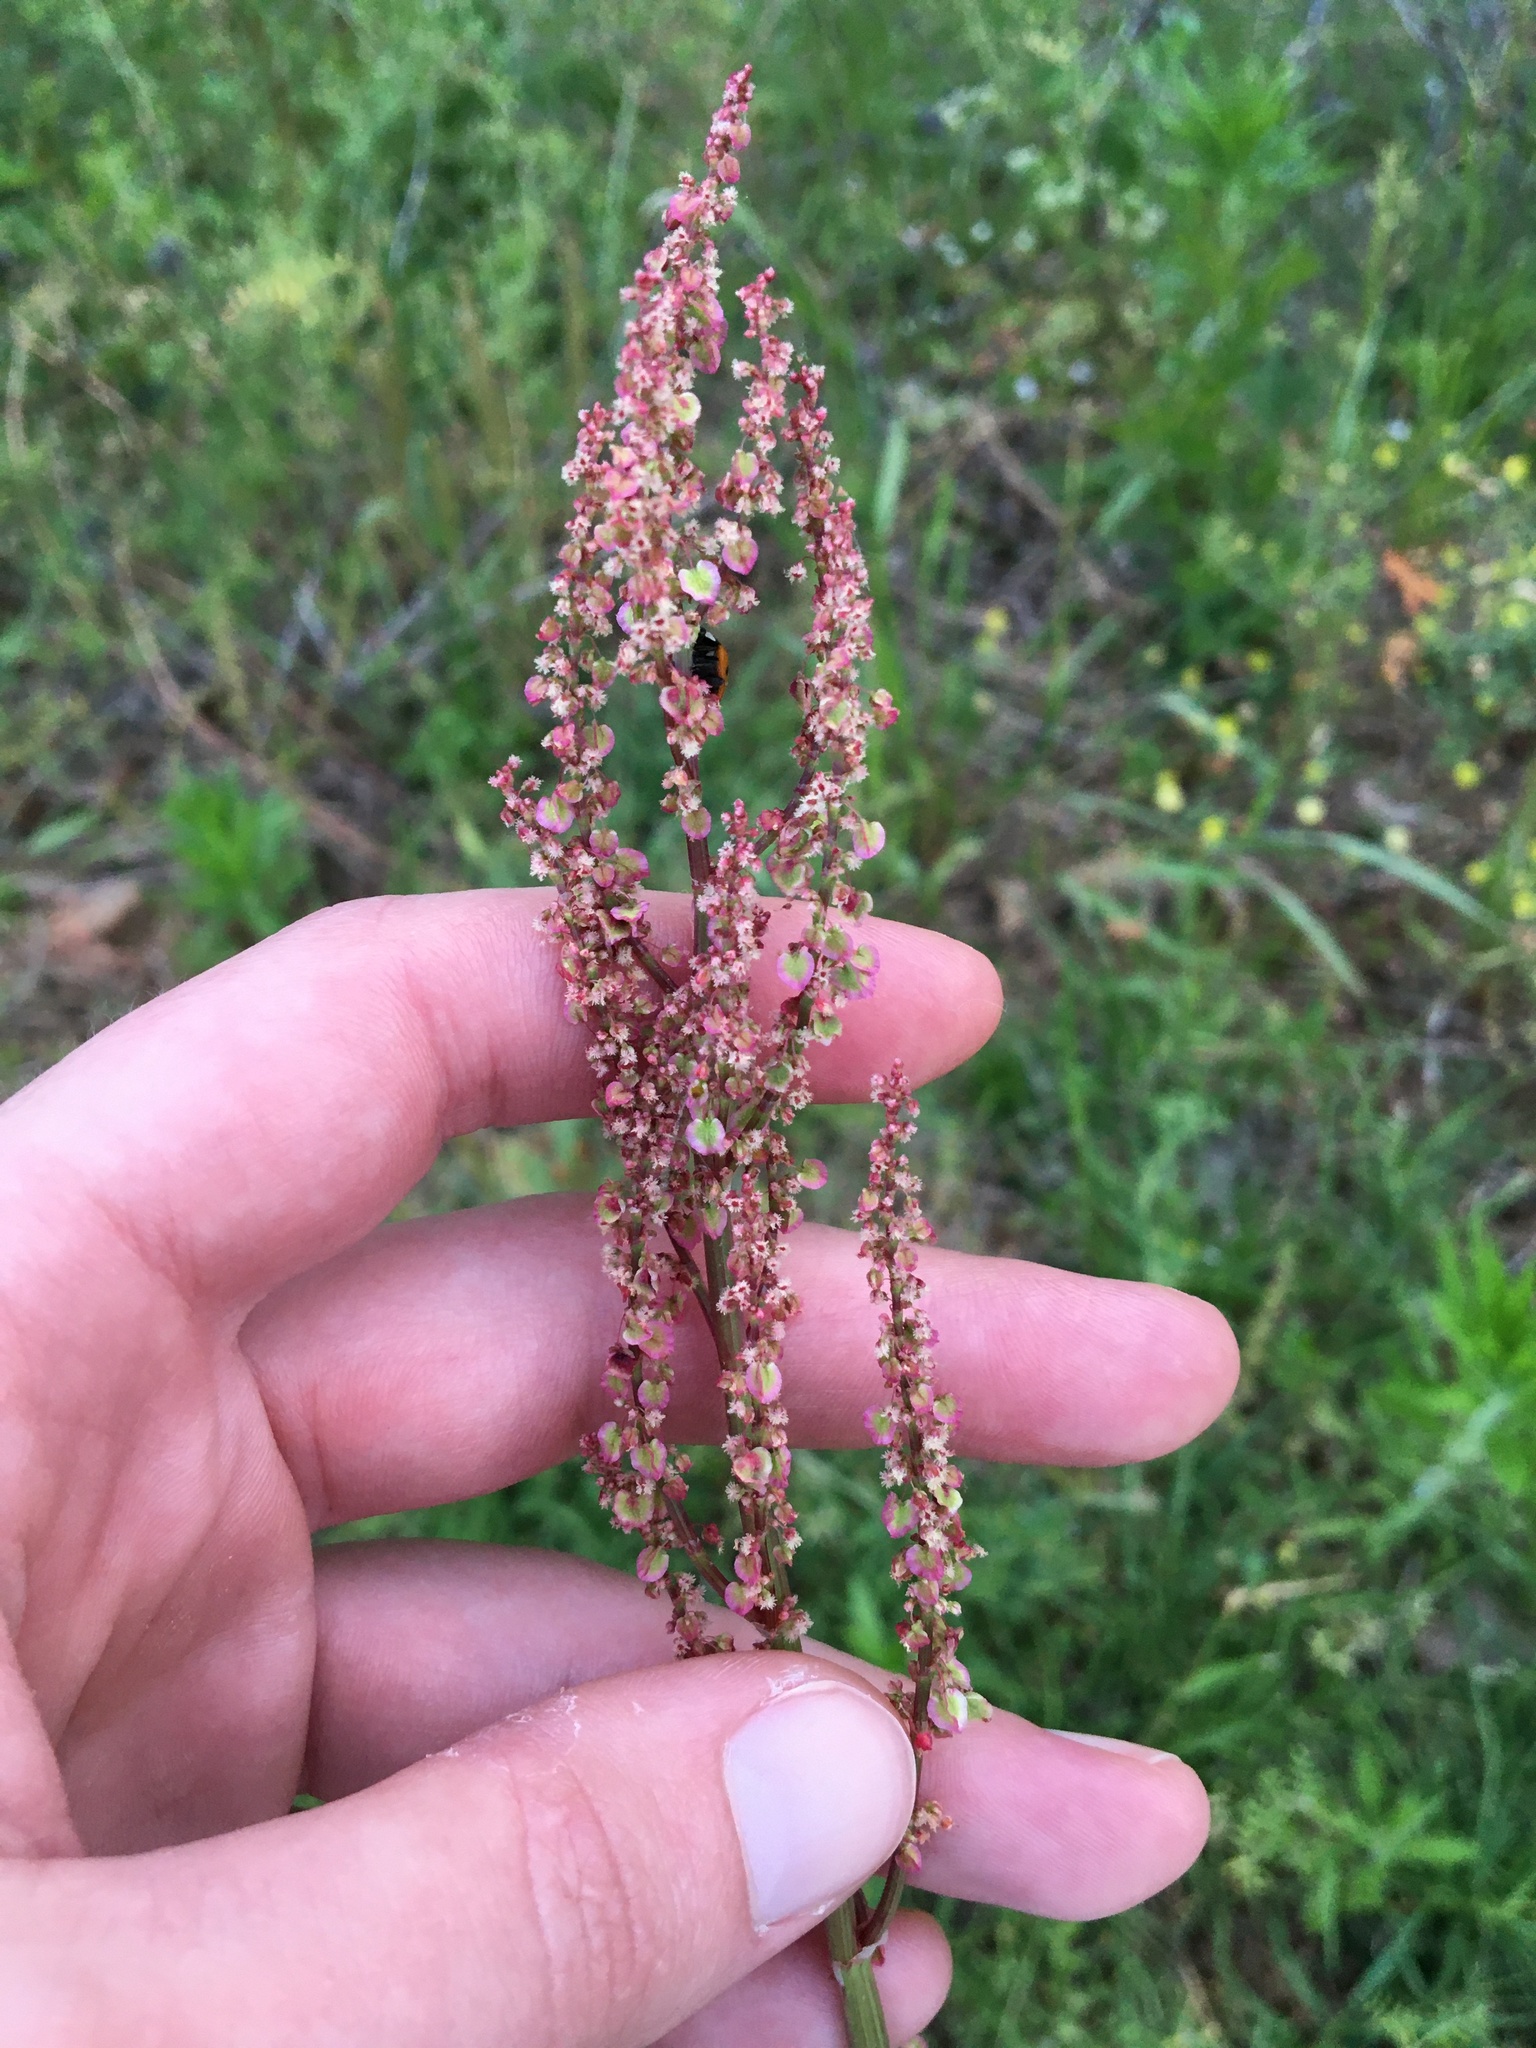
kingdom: Plantae
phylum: Tracheophyta
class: Magnoliopsida
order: Caryophyllales
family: Polygonaceae
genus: Rumex
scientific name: Rumex hastatulus
